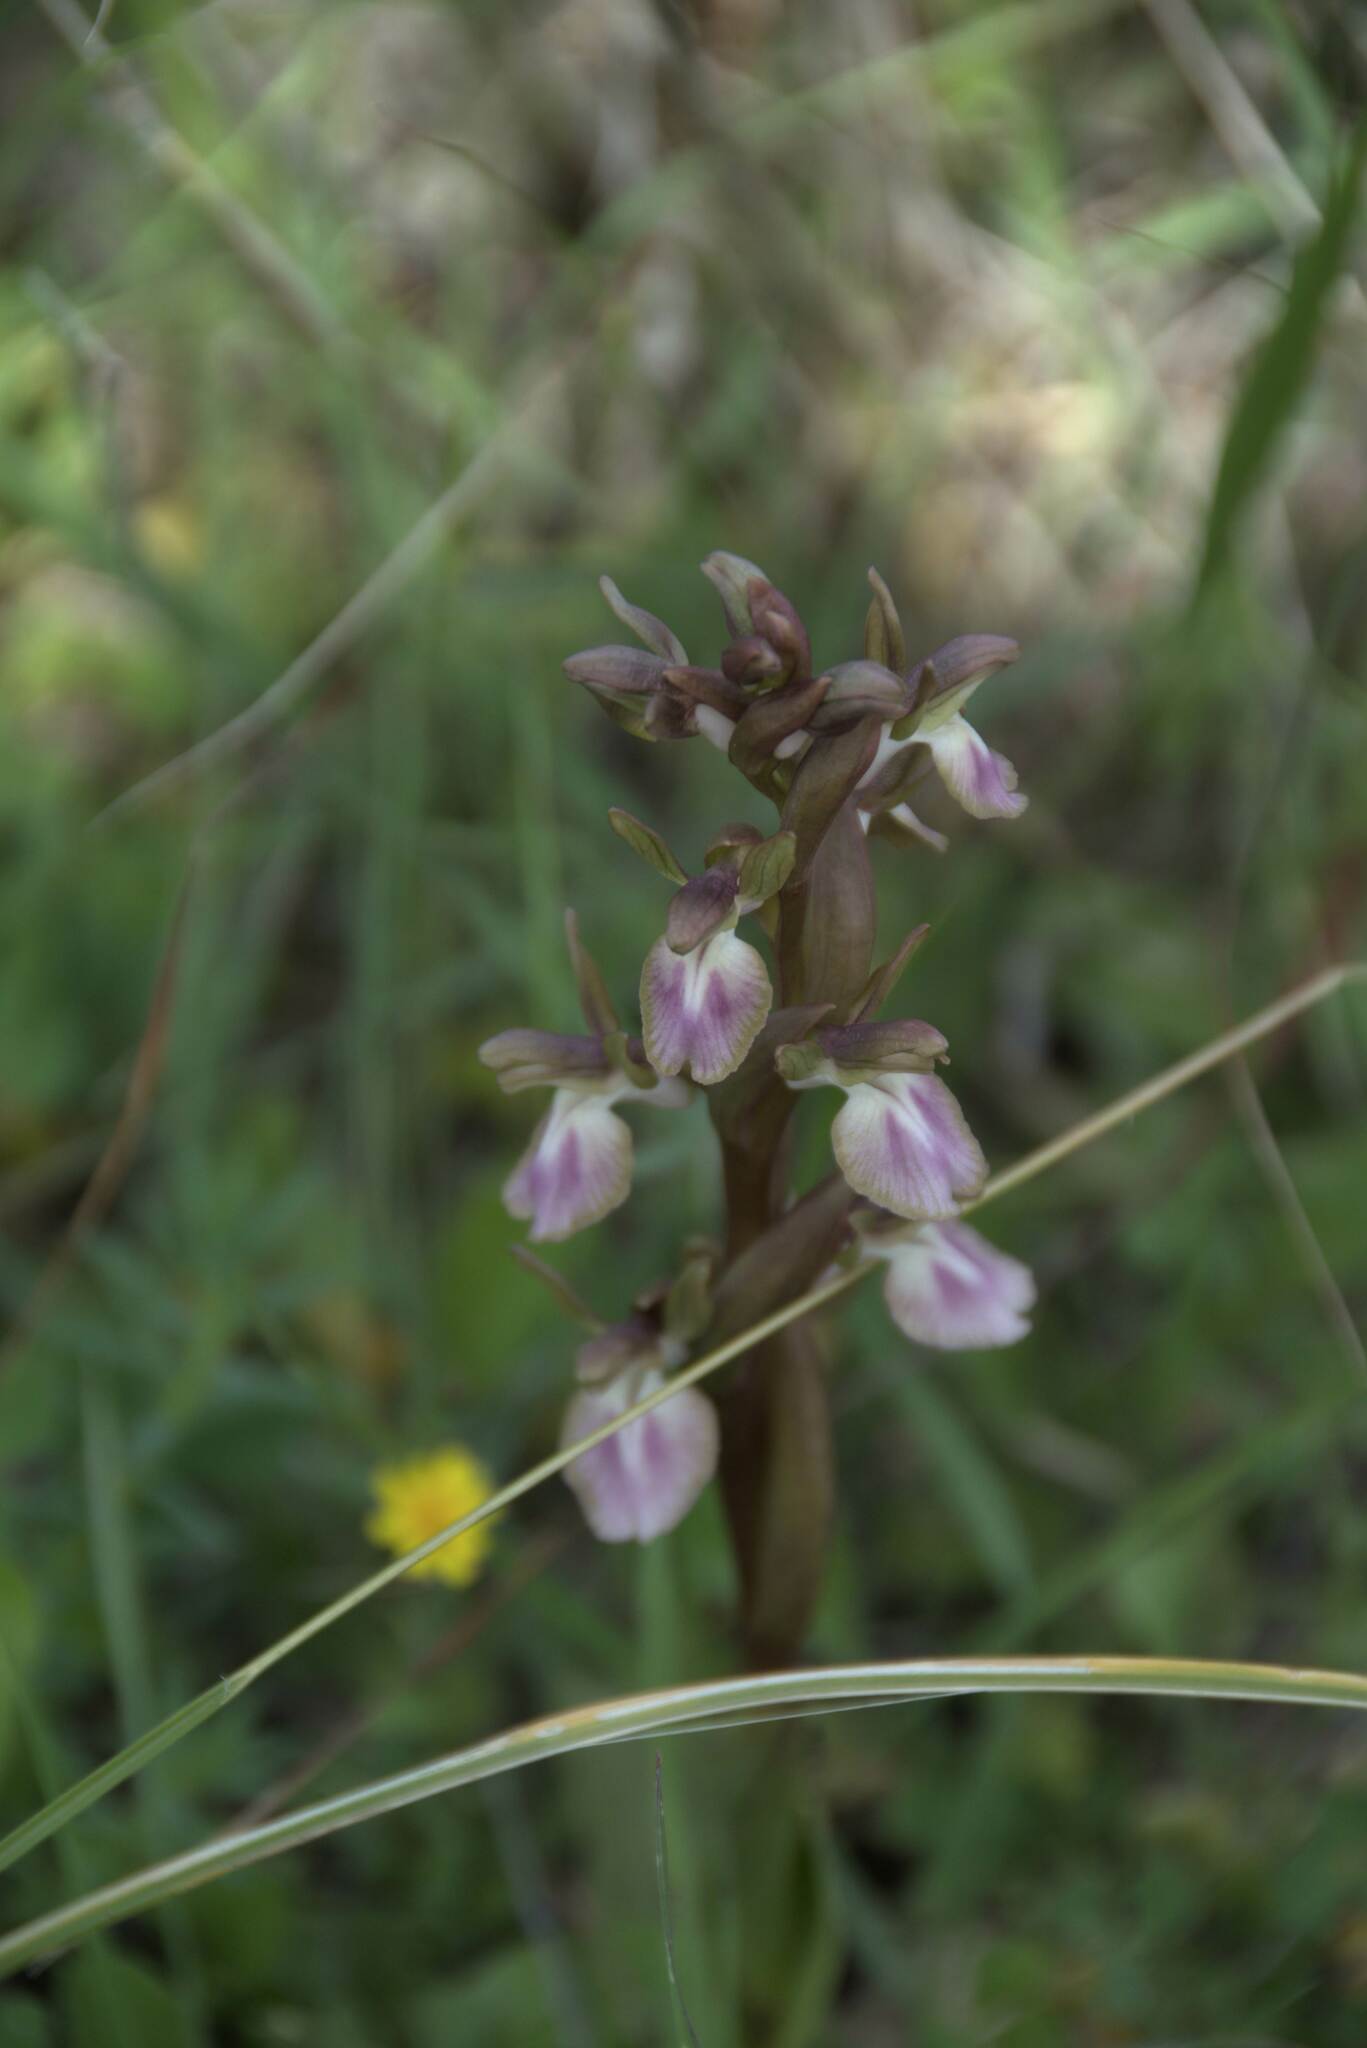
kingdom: Plantae
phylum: Tracheophyta
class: Liliopsida
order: Asparagales
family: Orchidaceae
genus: Anacamptis
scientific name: Anacamptis collina
